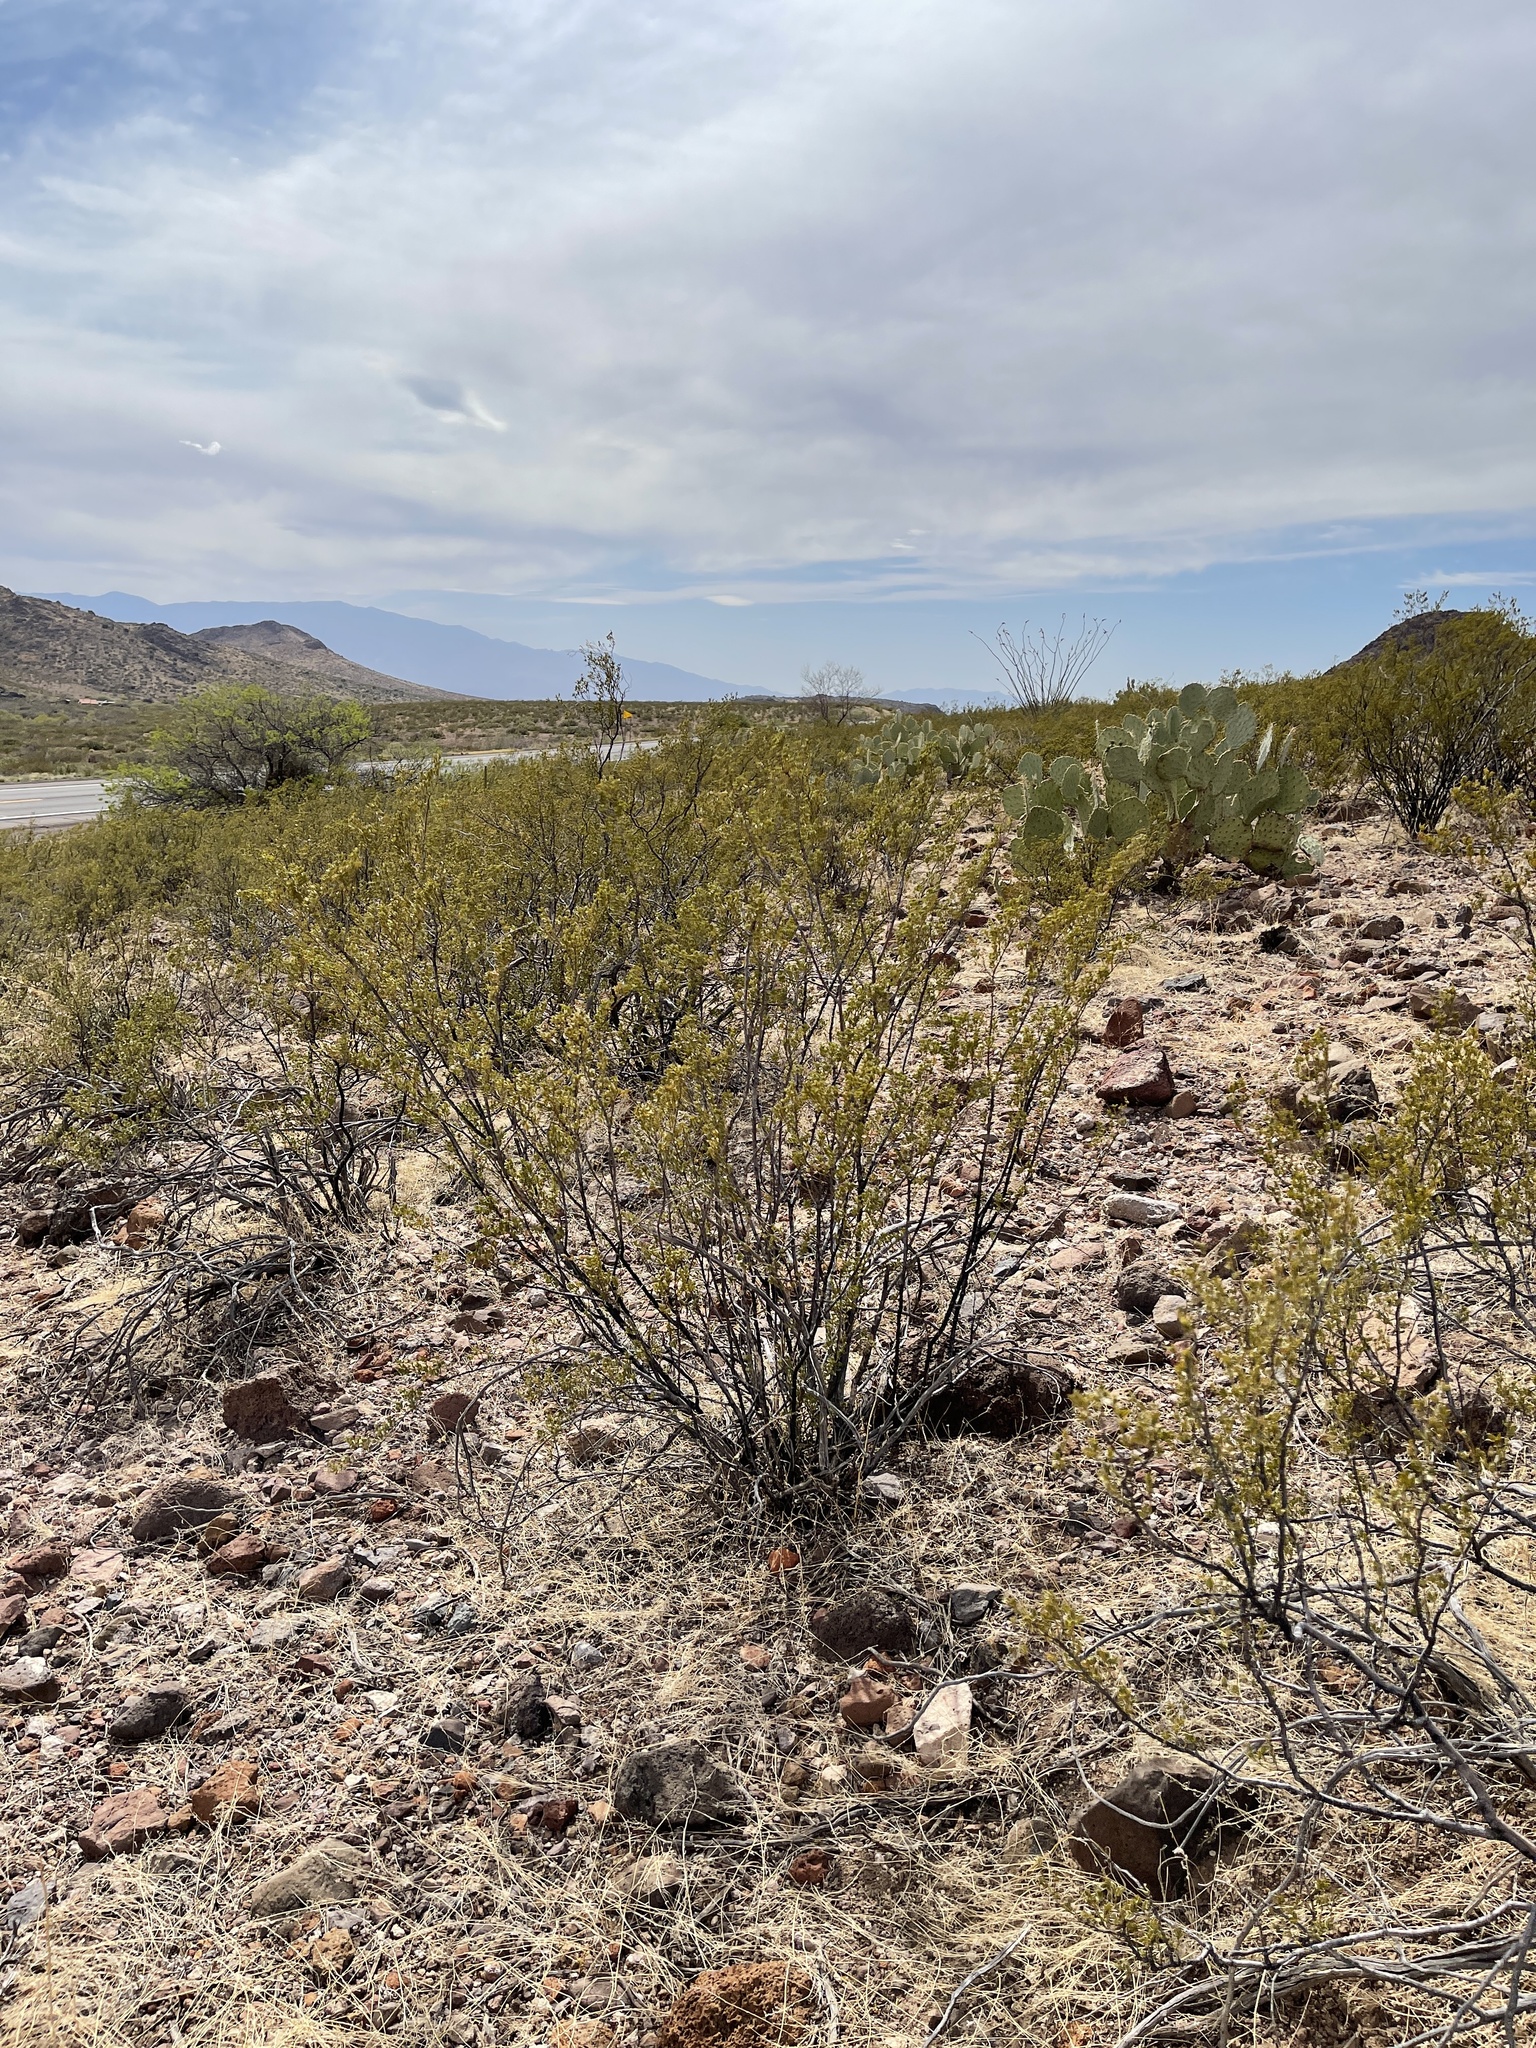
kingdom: Plantae
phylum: Tracheophyta
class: Magnoliopsida
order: Zygophyllales
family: Zygophyllaceae
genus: Larrea
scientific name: Larrea tridentata
